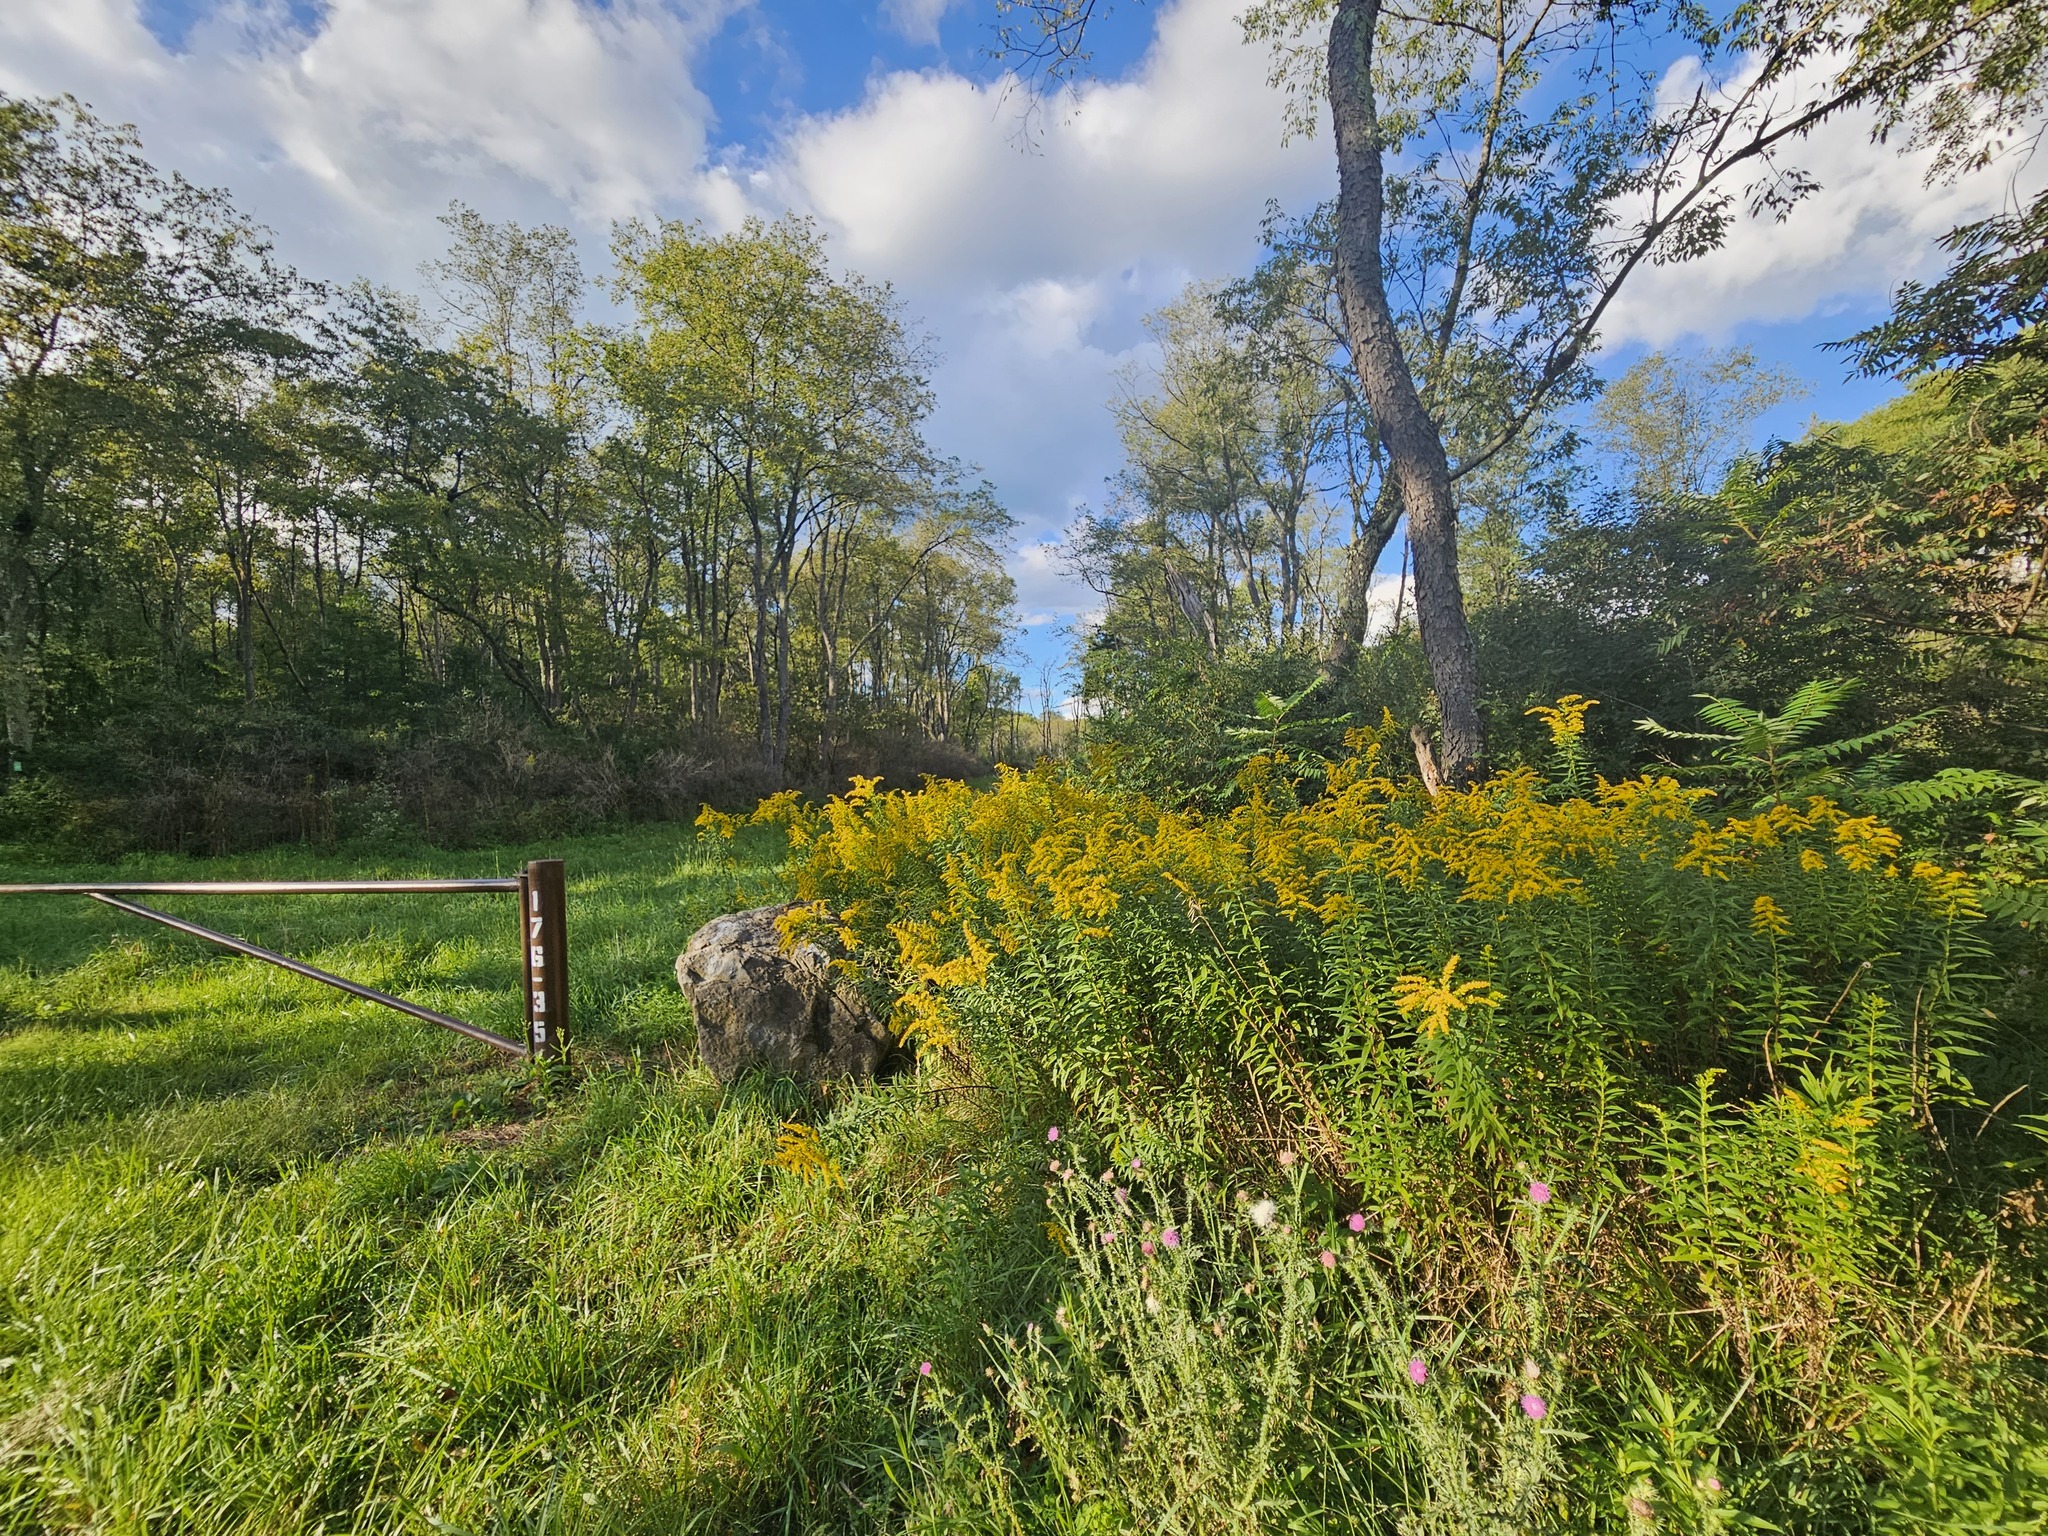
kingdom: Plantae
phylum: Tracheophyta
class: Magnoliopsida
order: Asterales
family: Asteraceae
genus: Solidago
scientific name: Solidago altissima
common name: Late goldenrod
